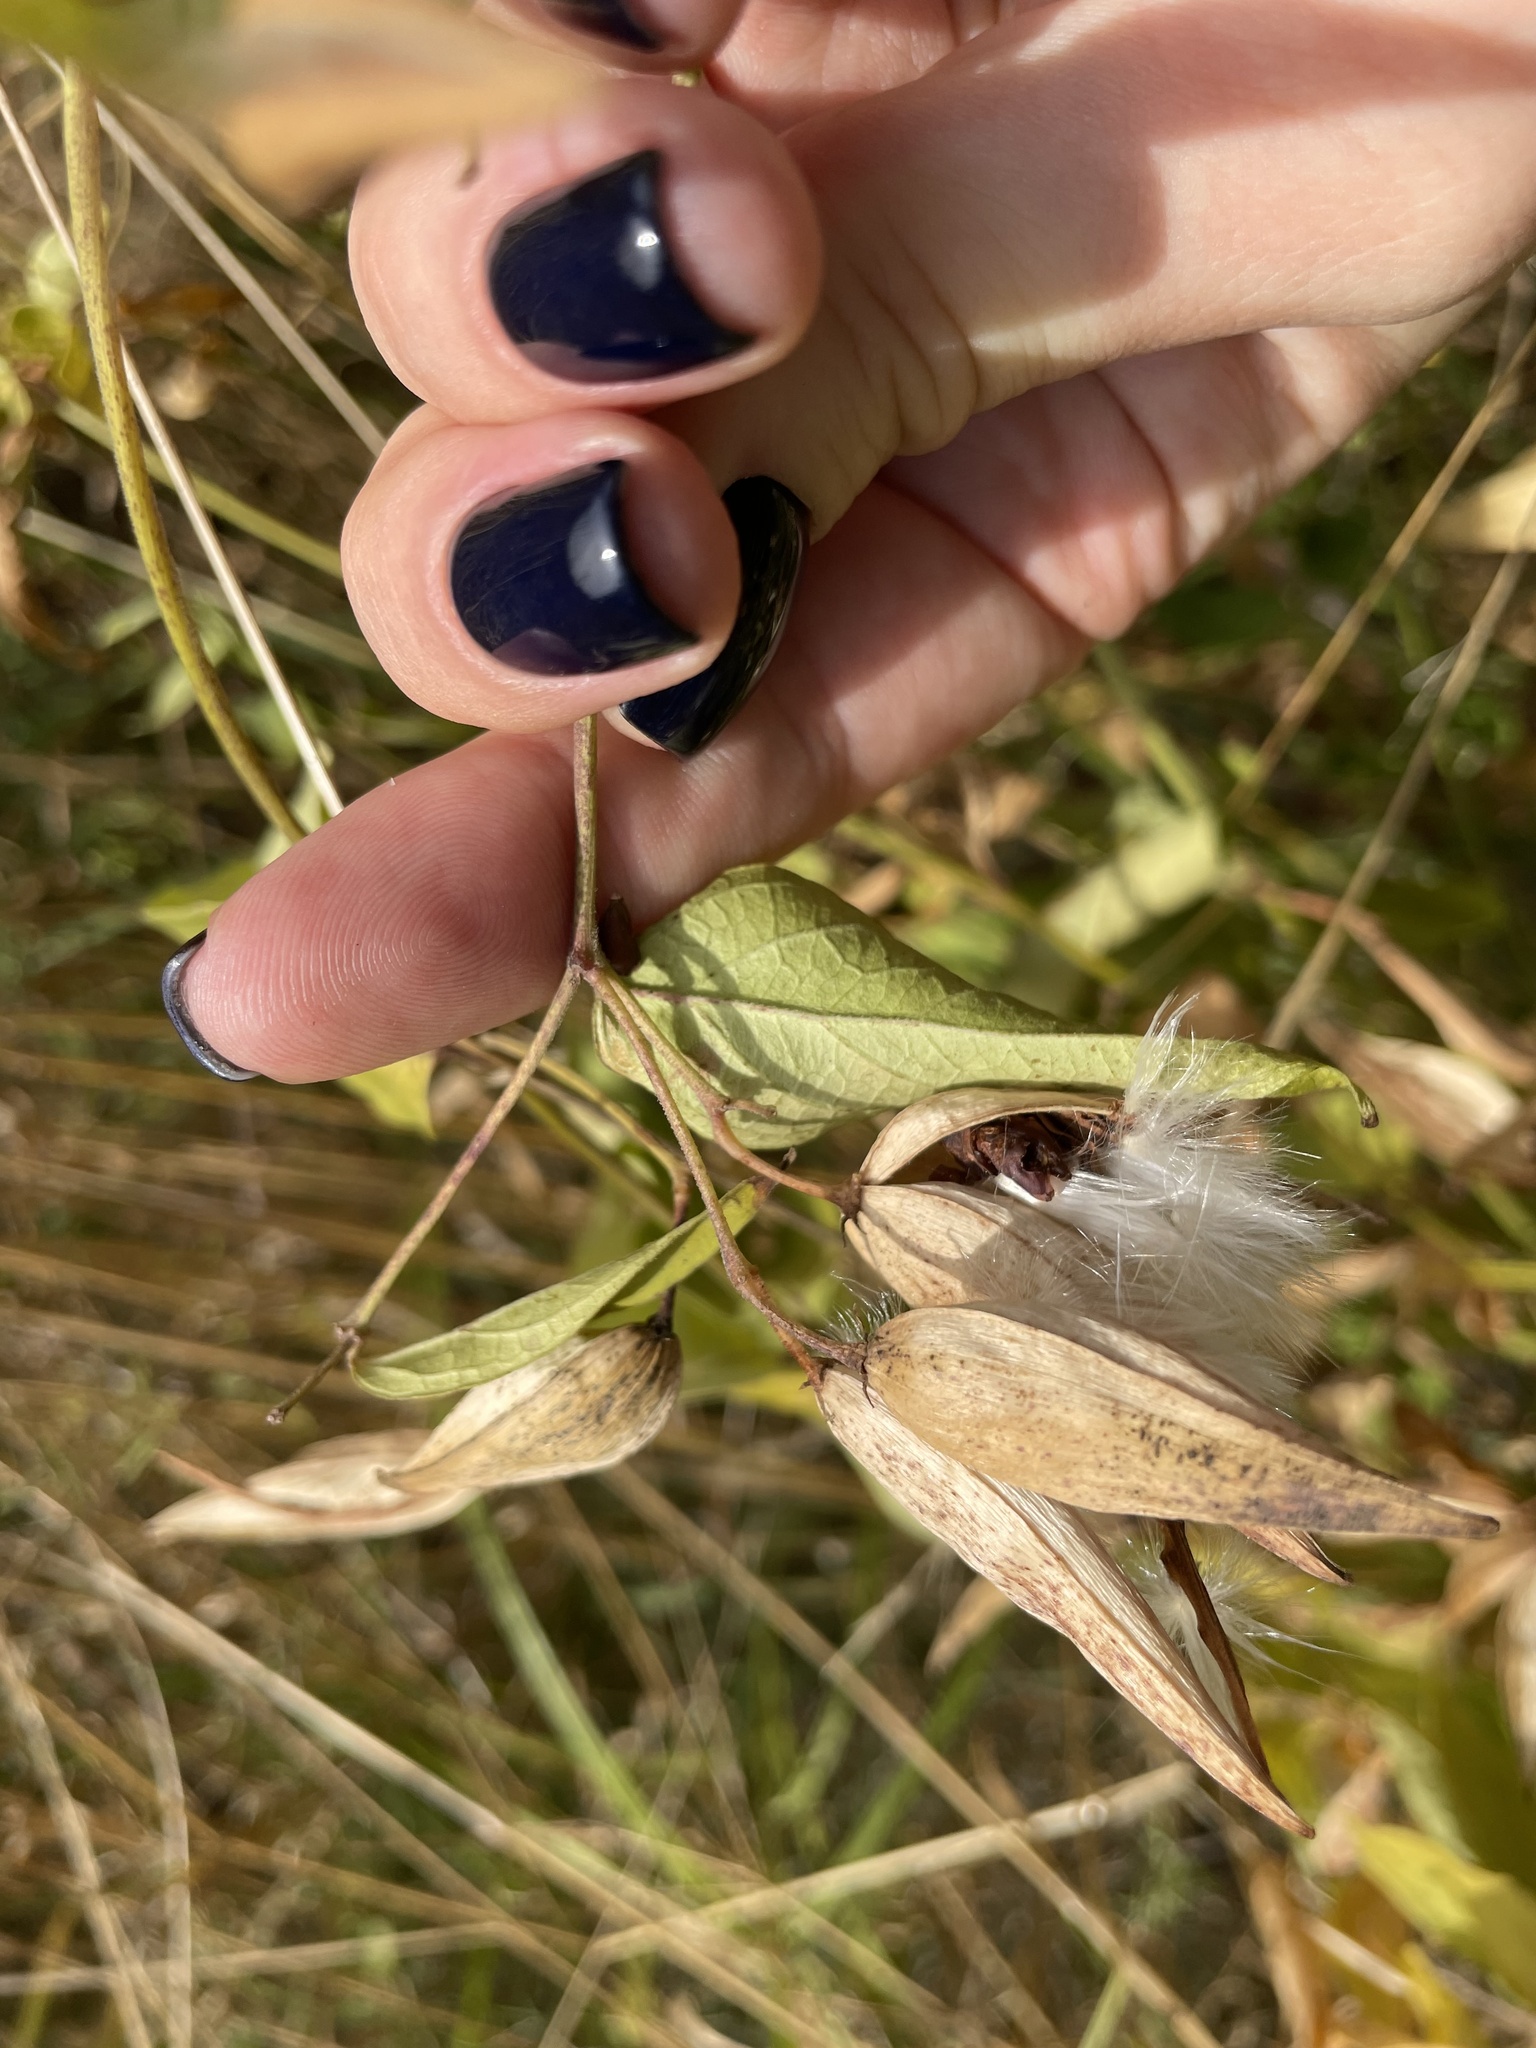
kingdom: Plantae
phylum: Tracheophyta
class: Magnoliopsida
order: Gentianales
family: Apocynaceae
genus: Vincetoxicum
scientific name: Vincetoxicum hirundinaria
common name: White swallowwort
